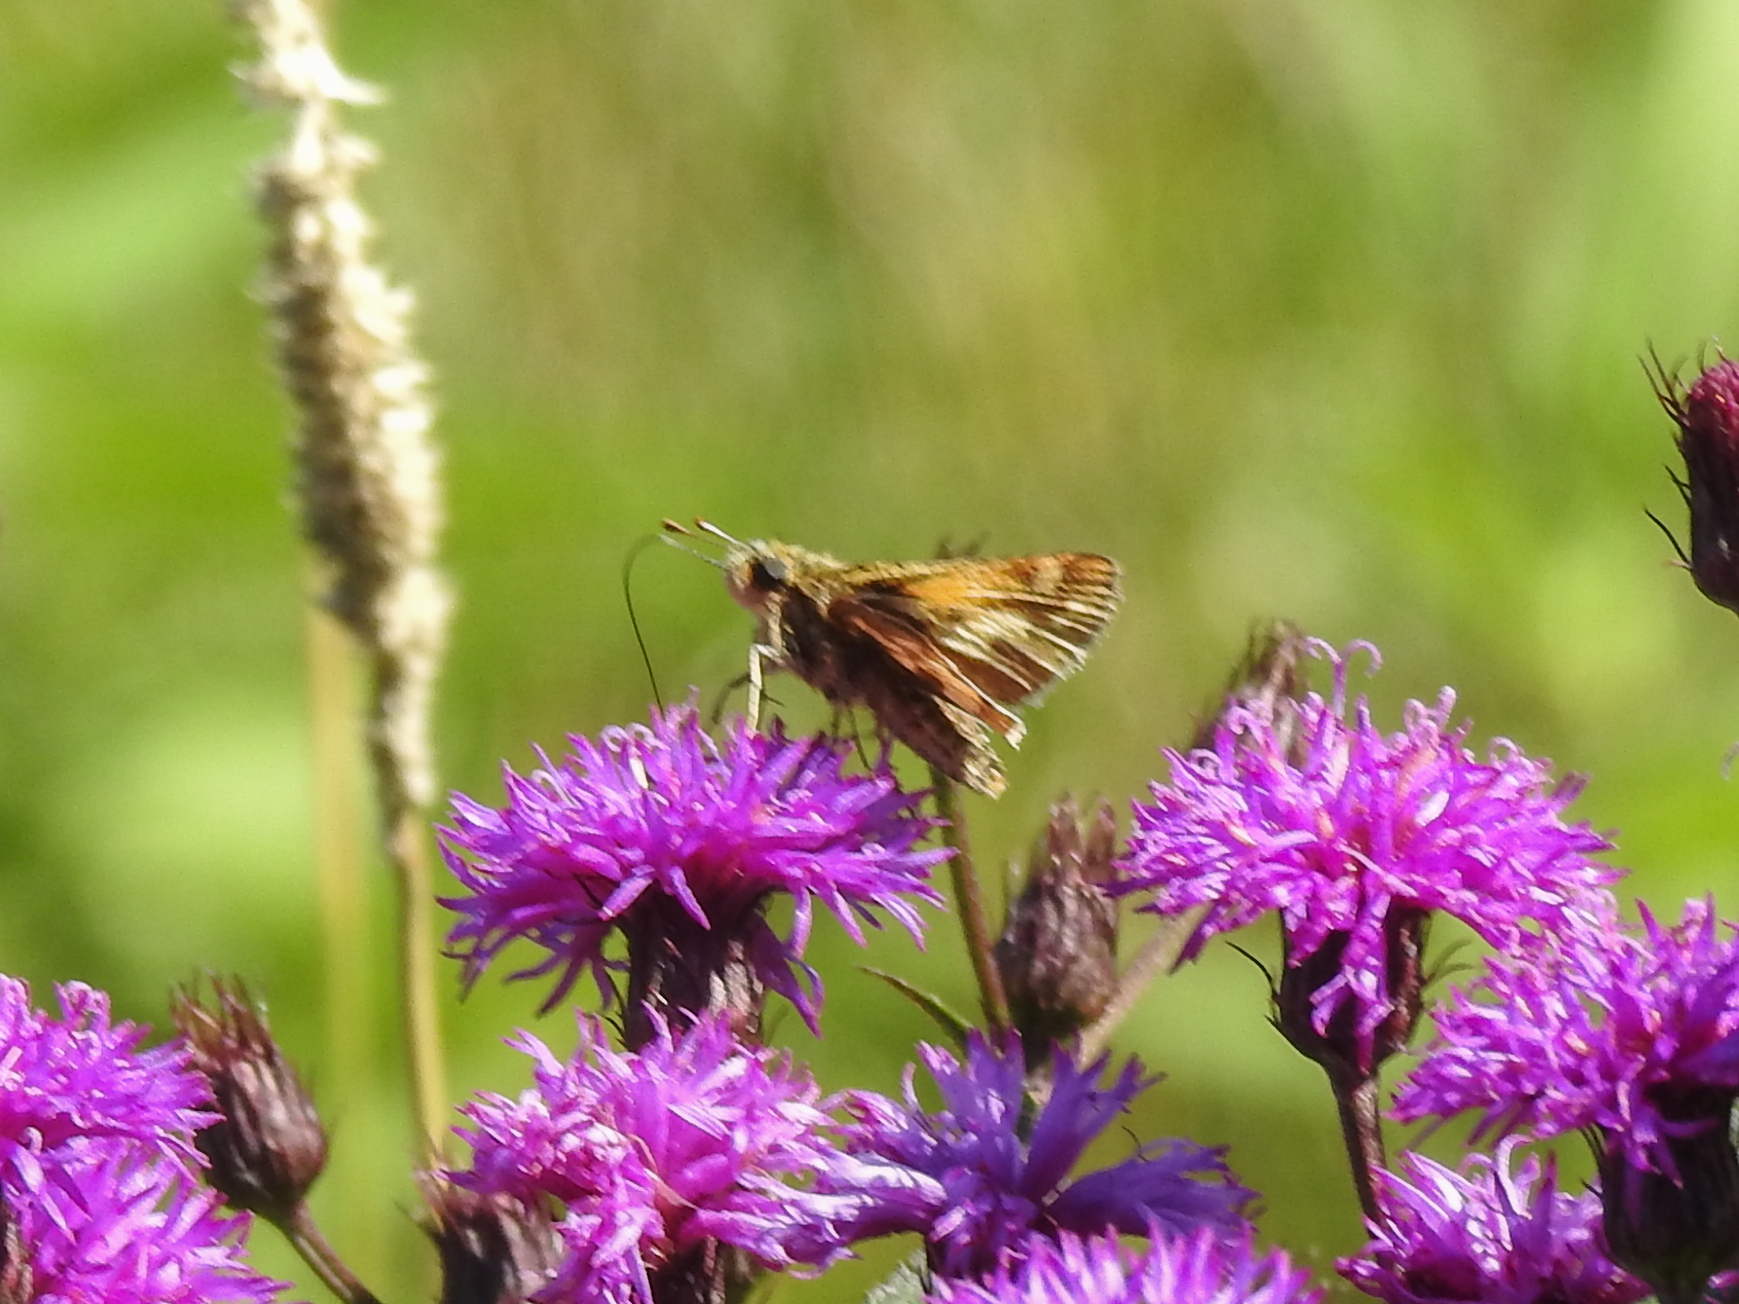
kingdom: Animalia
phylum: Arthropoda
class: Insecta
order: Lepidoptera
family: Hesperiidae
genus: Polites
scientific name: Polites coras
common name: Peck's skipper
